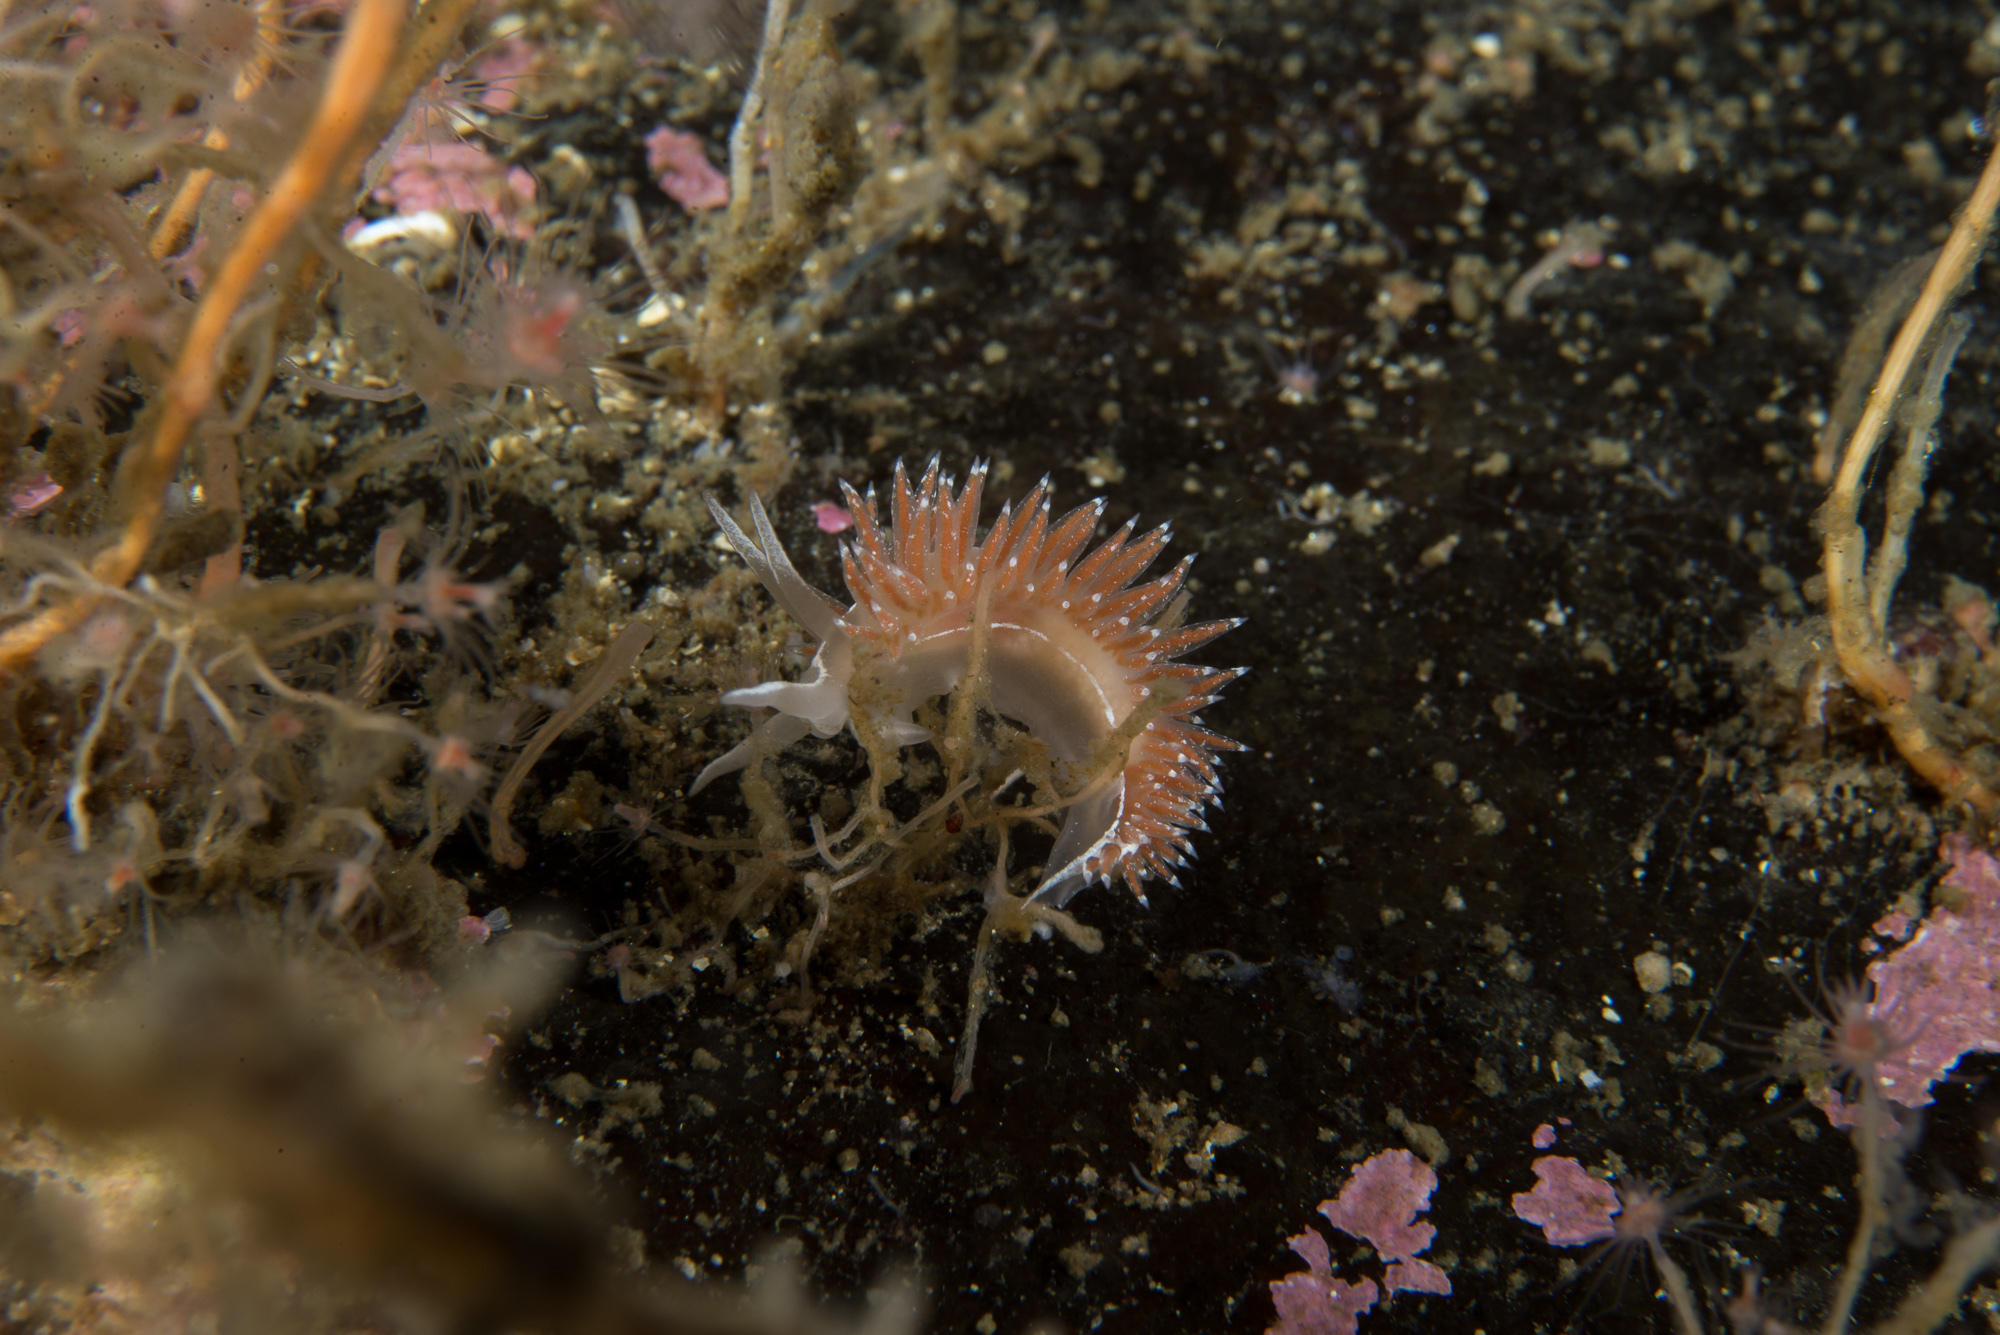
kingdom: Animalia
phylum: Mollusca
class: Gastropoda
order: Nudibranchia
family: Coryphellidae
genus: Coryphella
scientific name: Coryphella monicae
